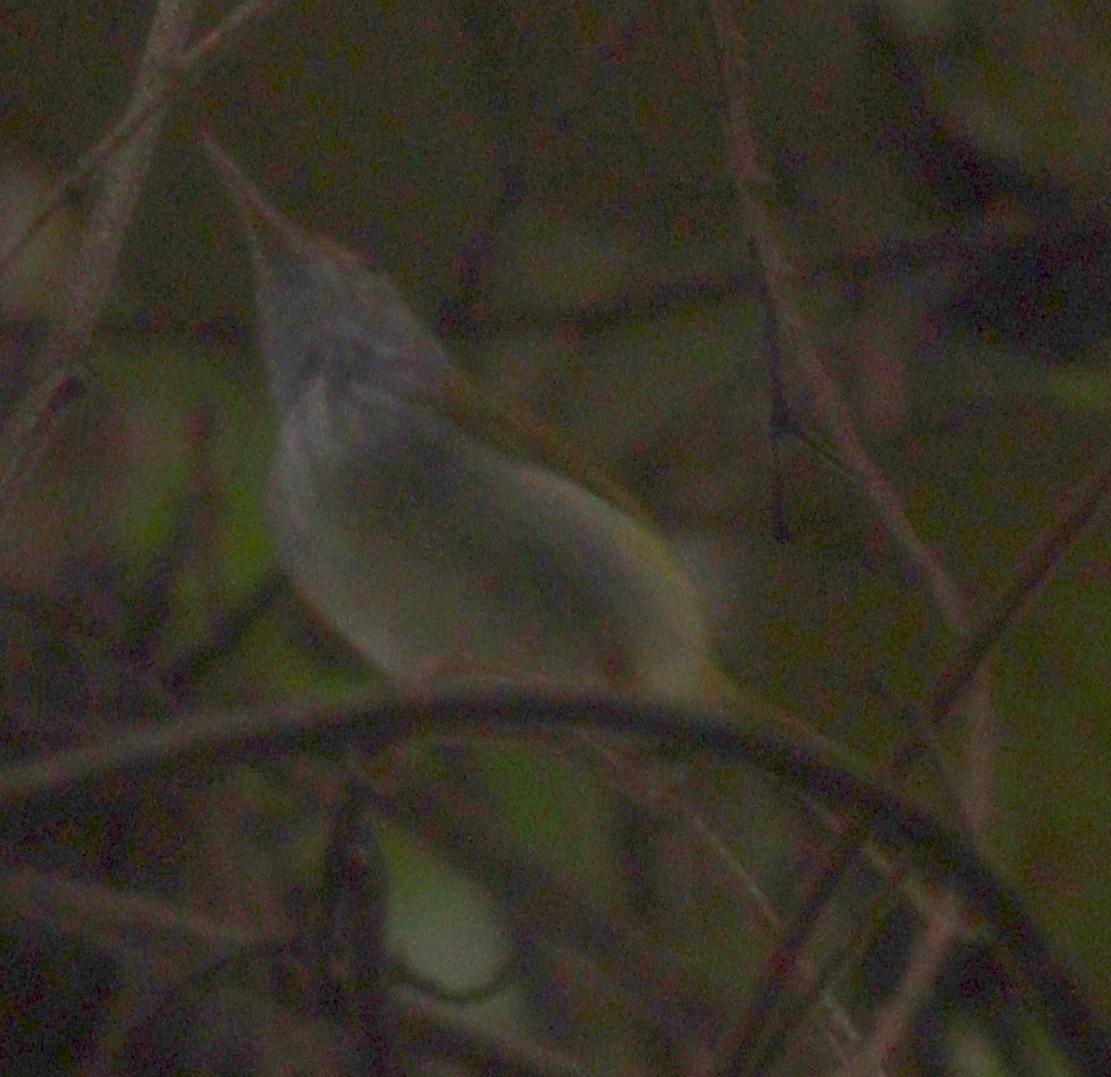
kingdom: Animalia
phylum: Chordata
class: Aves
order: Passeriformes
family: Cisticolidae
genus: Orthotomus
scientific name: Orthotomus atrogularis
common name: Dark-necked tailorbird
